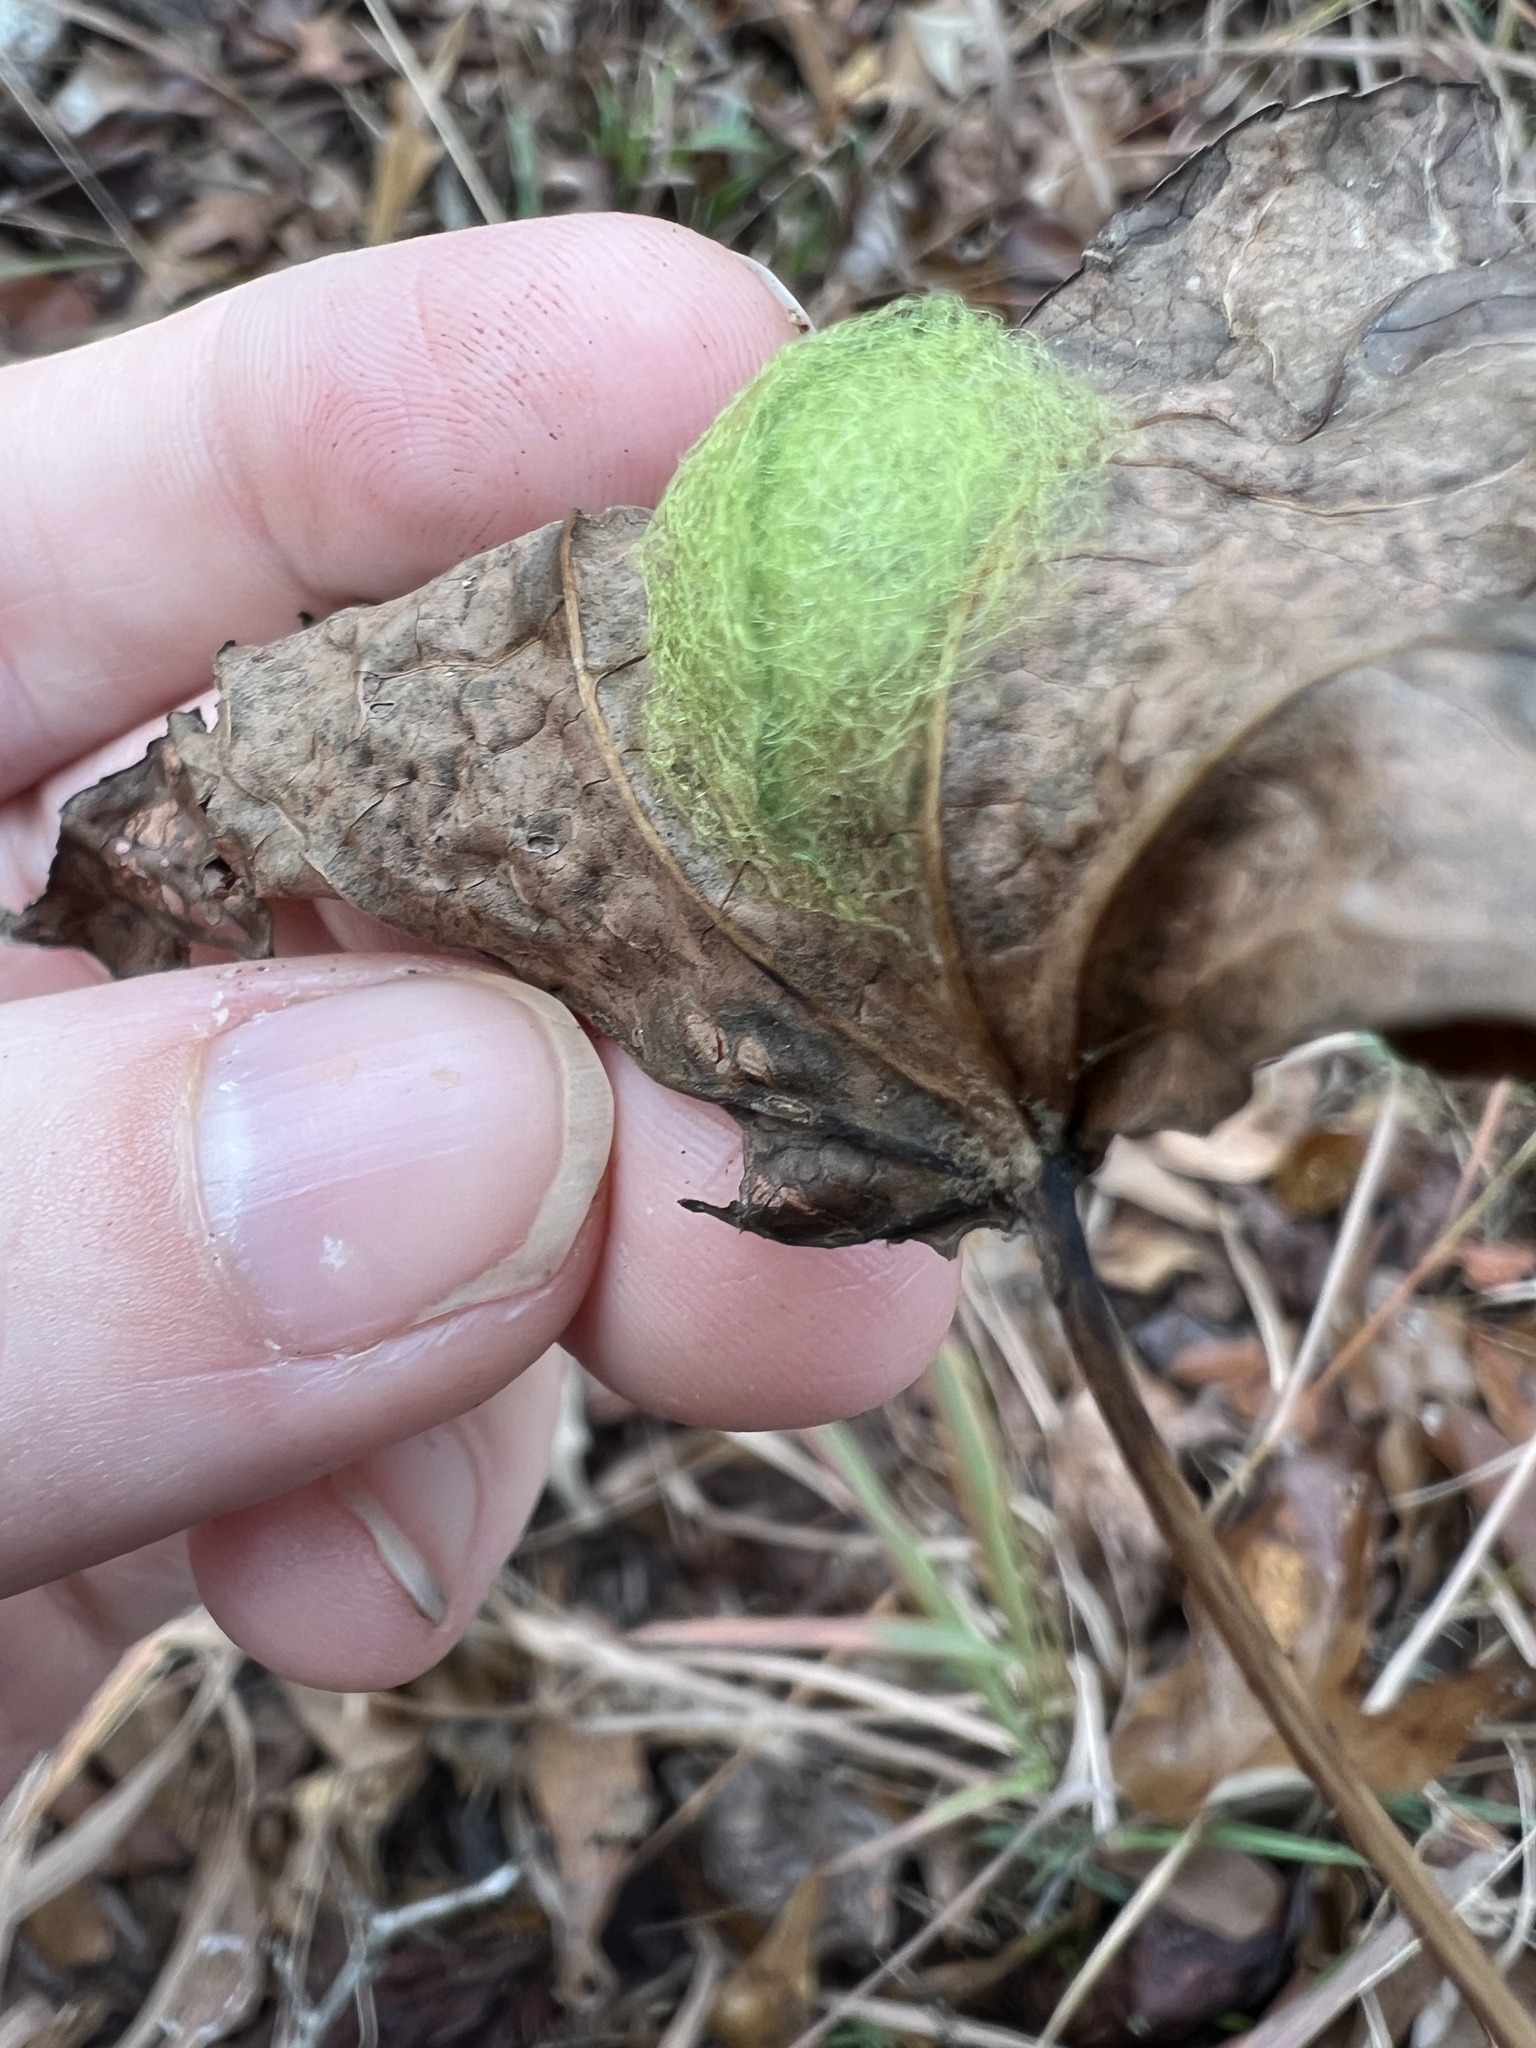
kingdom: Animalia
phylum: Arthropoda
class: Arachnida
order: Araneae
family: Araneidae
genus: Gasteracantha
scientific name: Gasteracantha cancriformis
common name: Orb weavers
